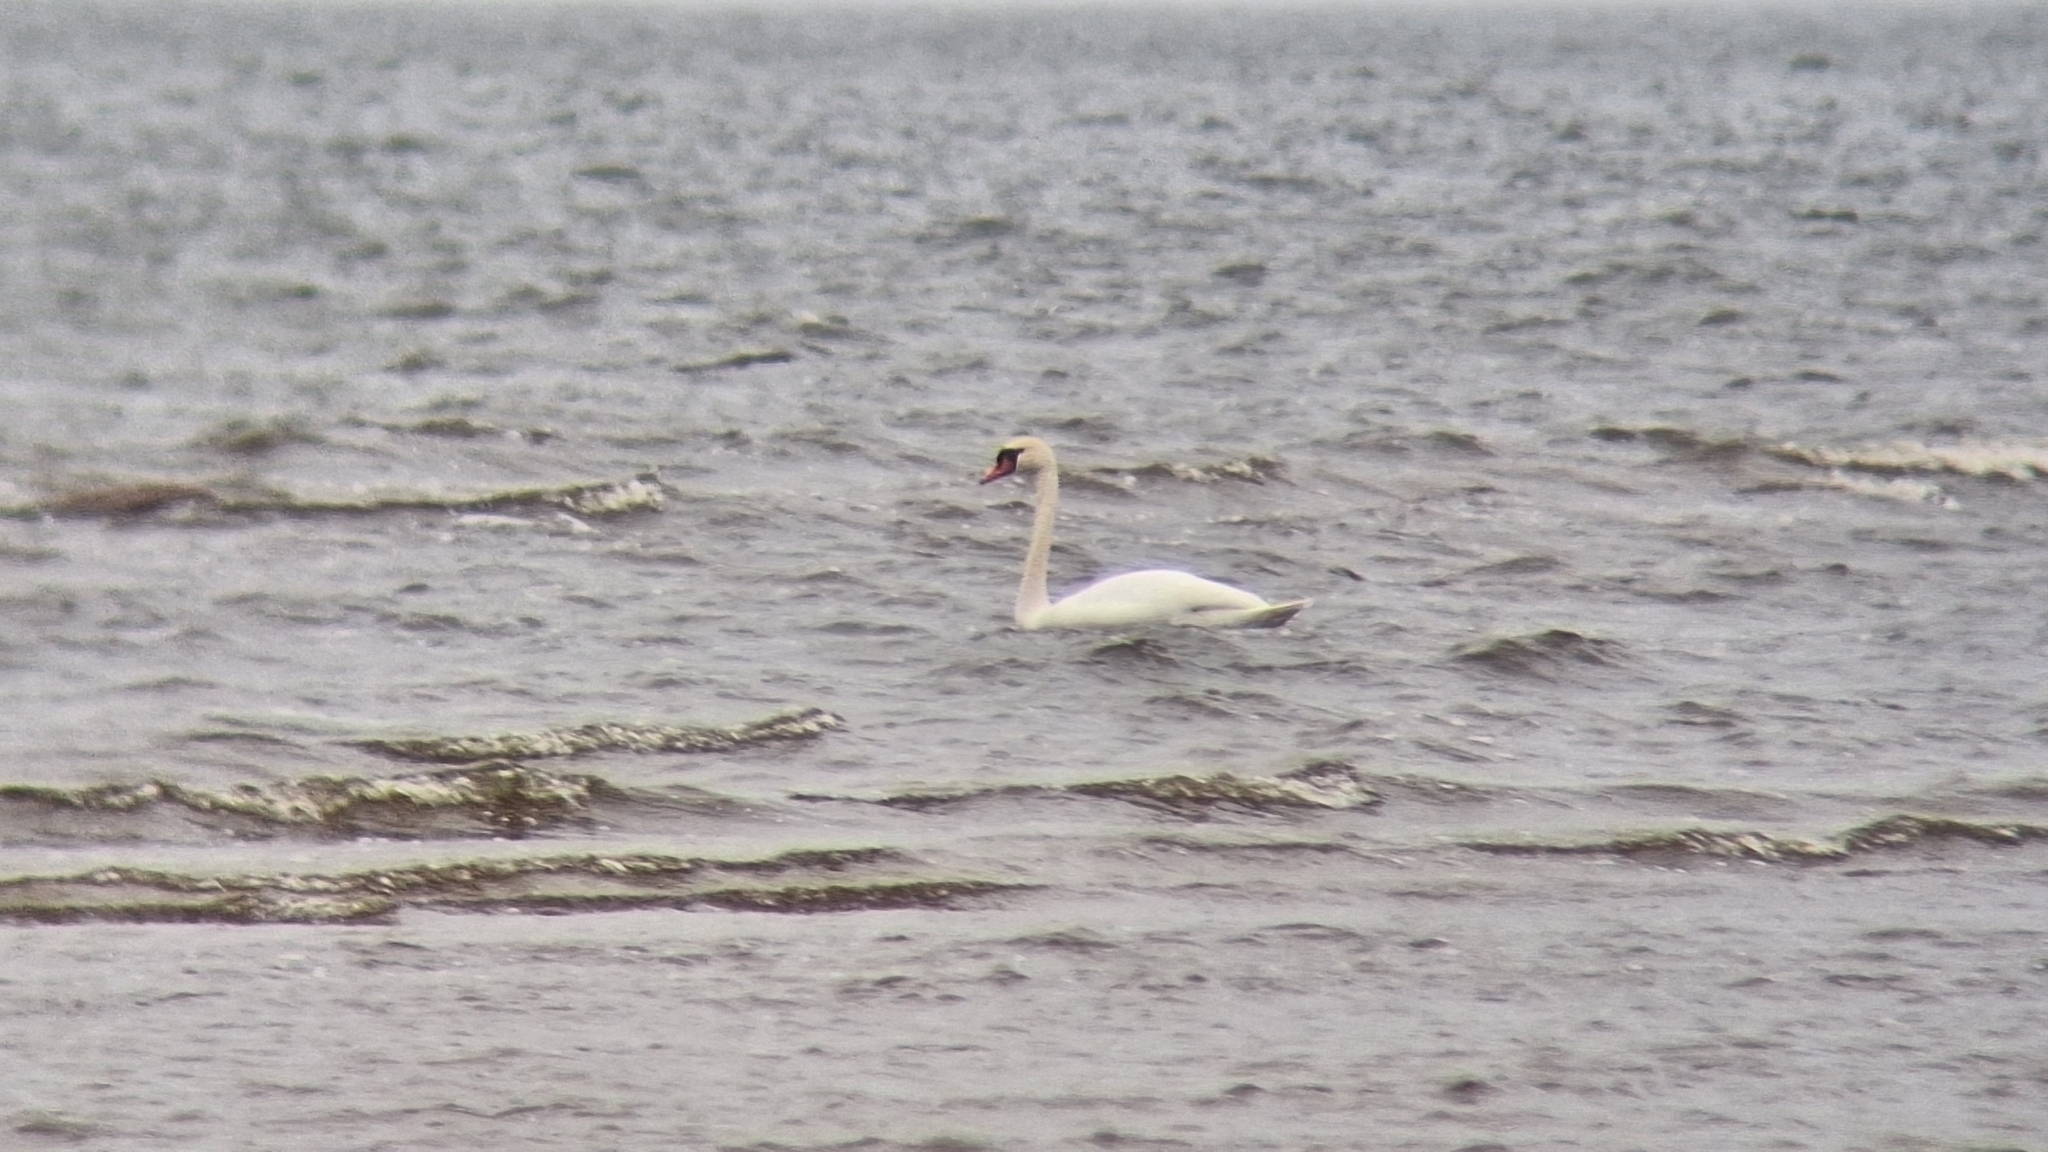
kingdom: Animalia
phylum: Chordata
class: Aves
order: Anseriformes
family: Anatidae
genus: Cygnus
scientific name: Cygnus olor
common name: Mute swan
